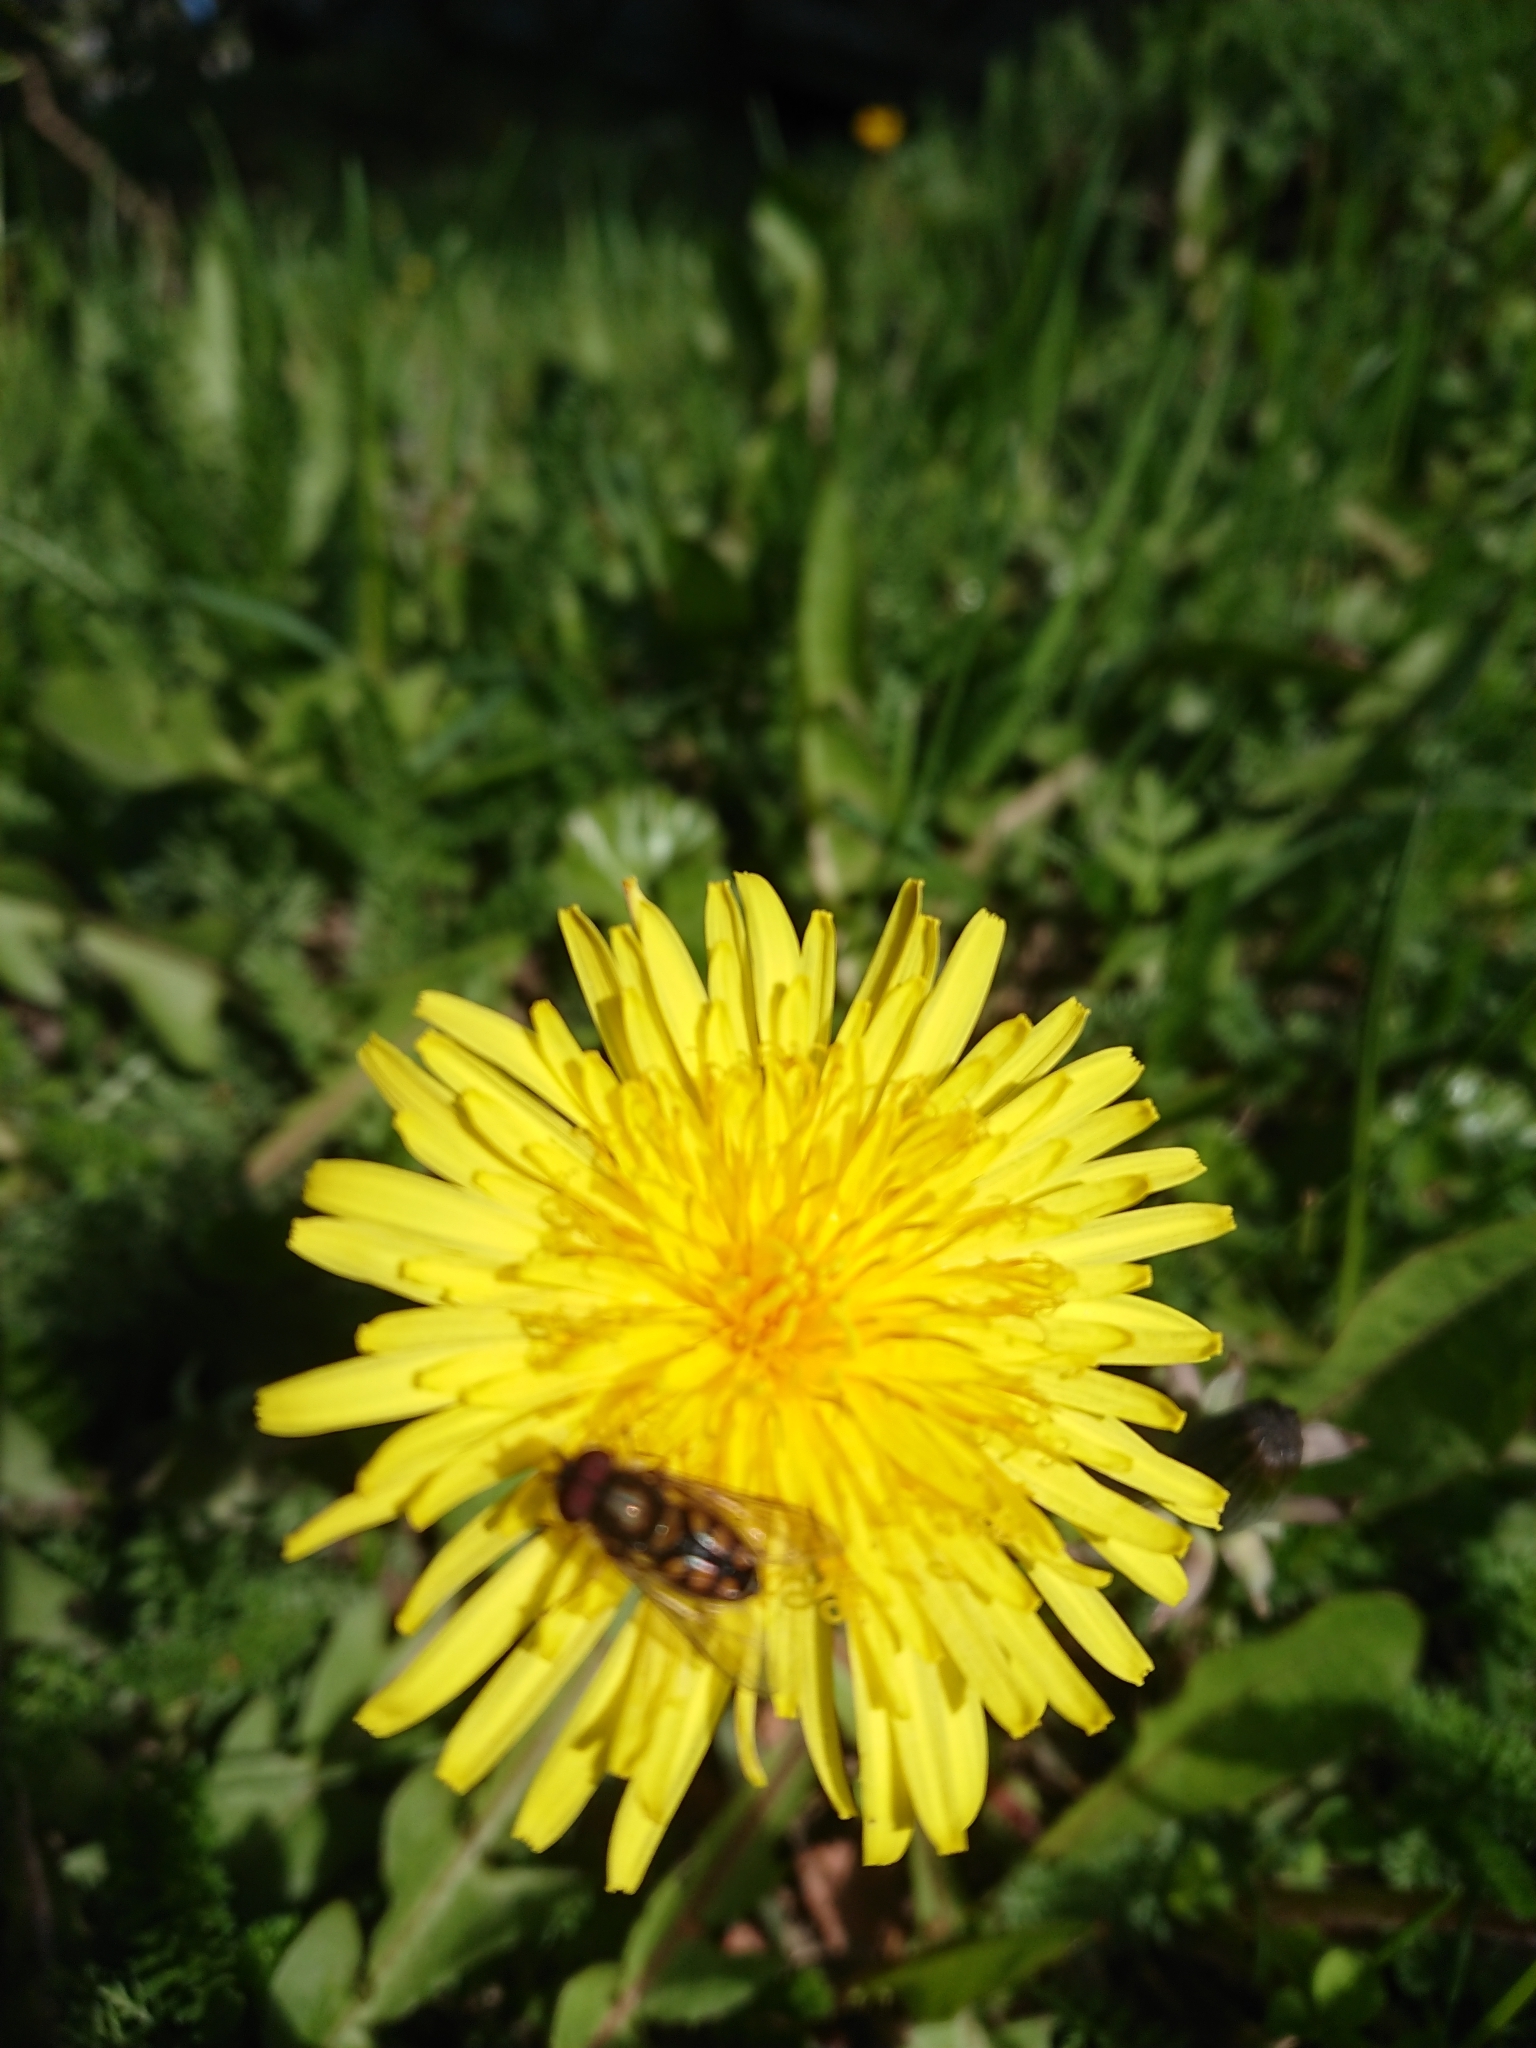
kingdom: Animalia
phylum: Arthropoda
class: Insecta
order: Diptera
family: Syrphidae
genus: Syrphus
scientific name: Syrphus octomaculatus
